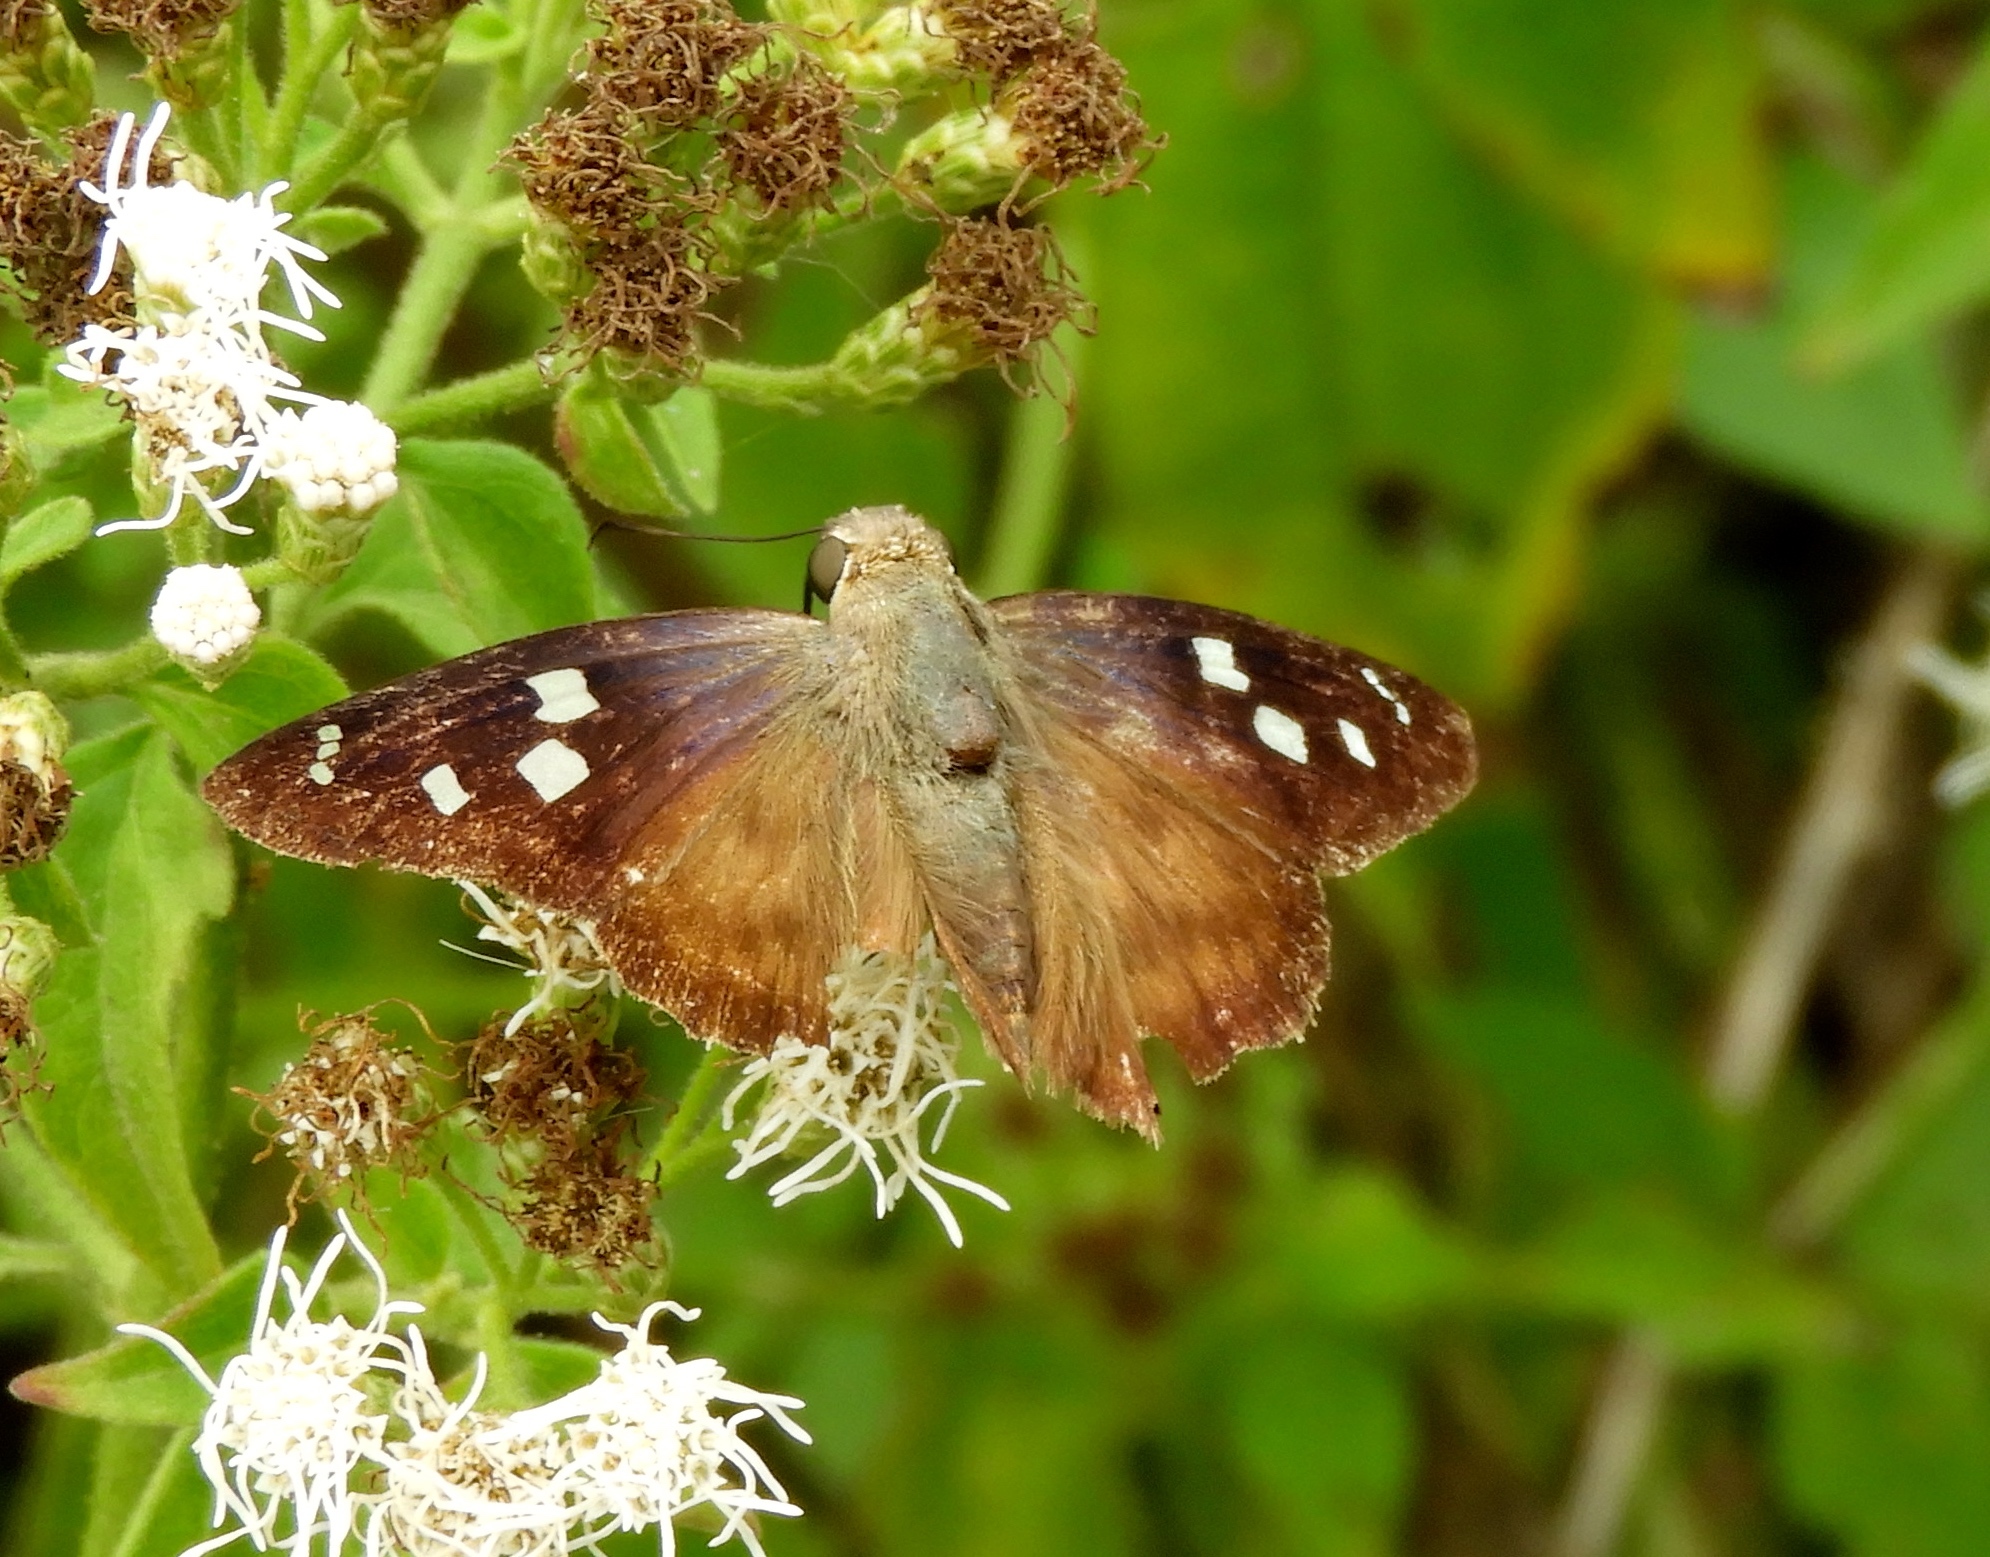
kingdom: Animalia
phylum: Arthropoda
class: Insecta
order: Lepidoptera
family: Hesperiidae
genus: Polygonus
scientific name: Polygonus
